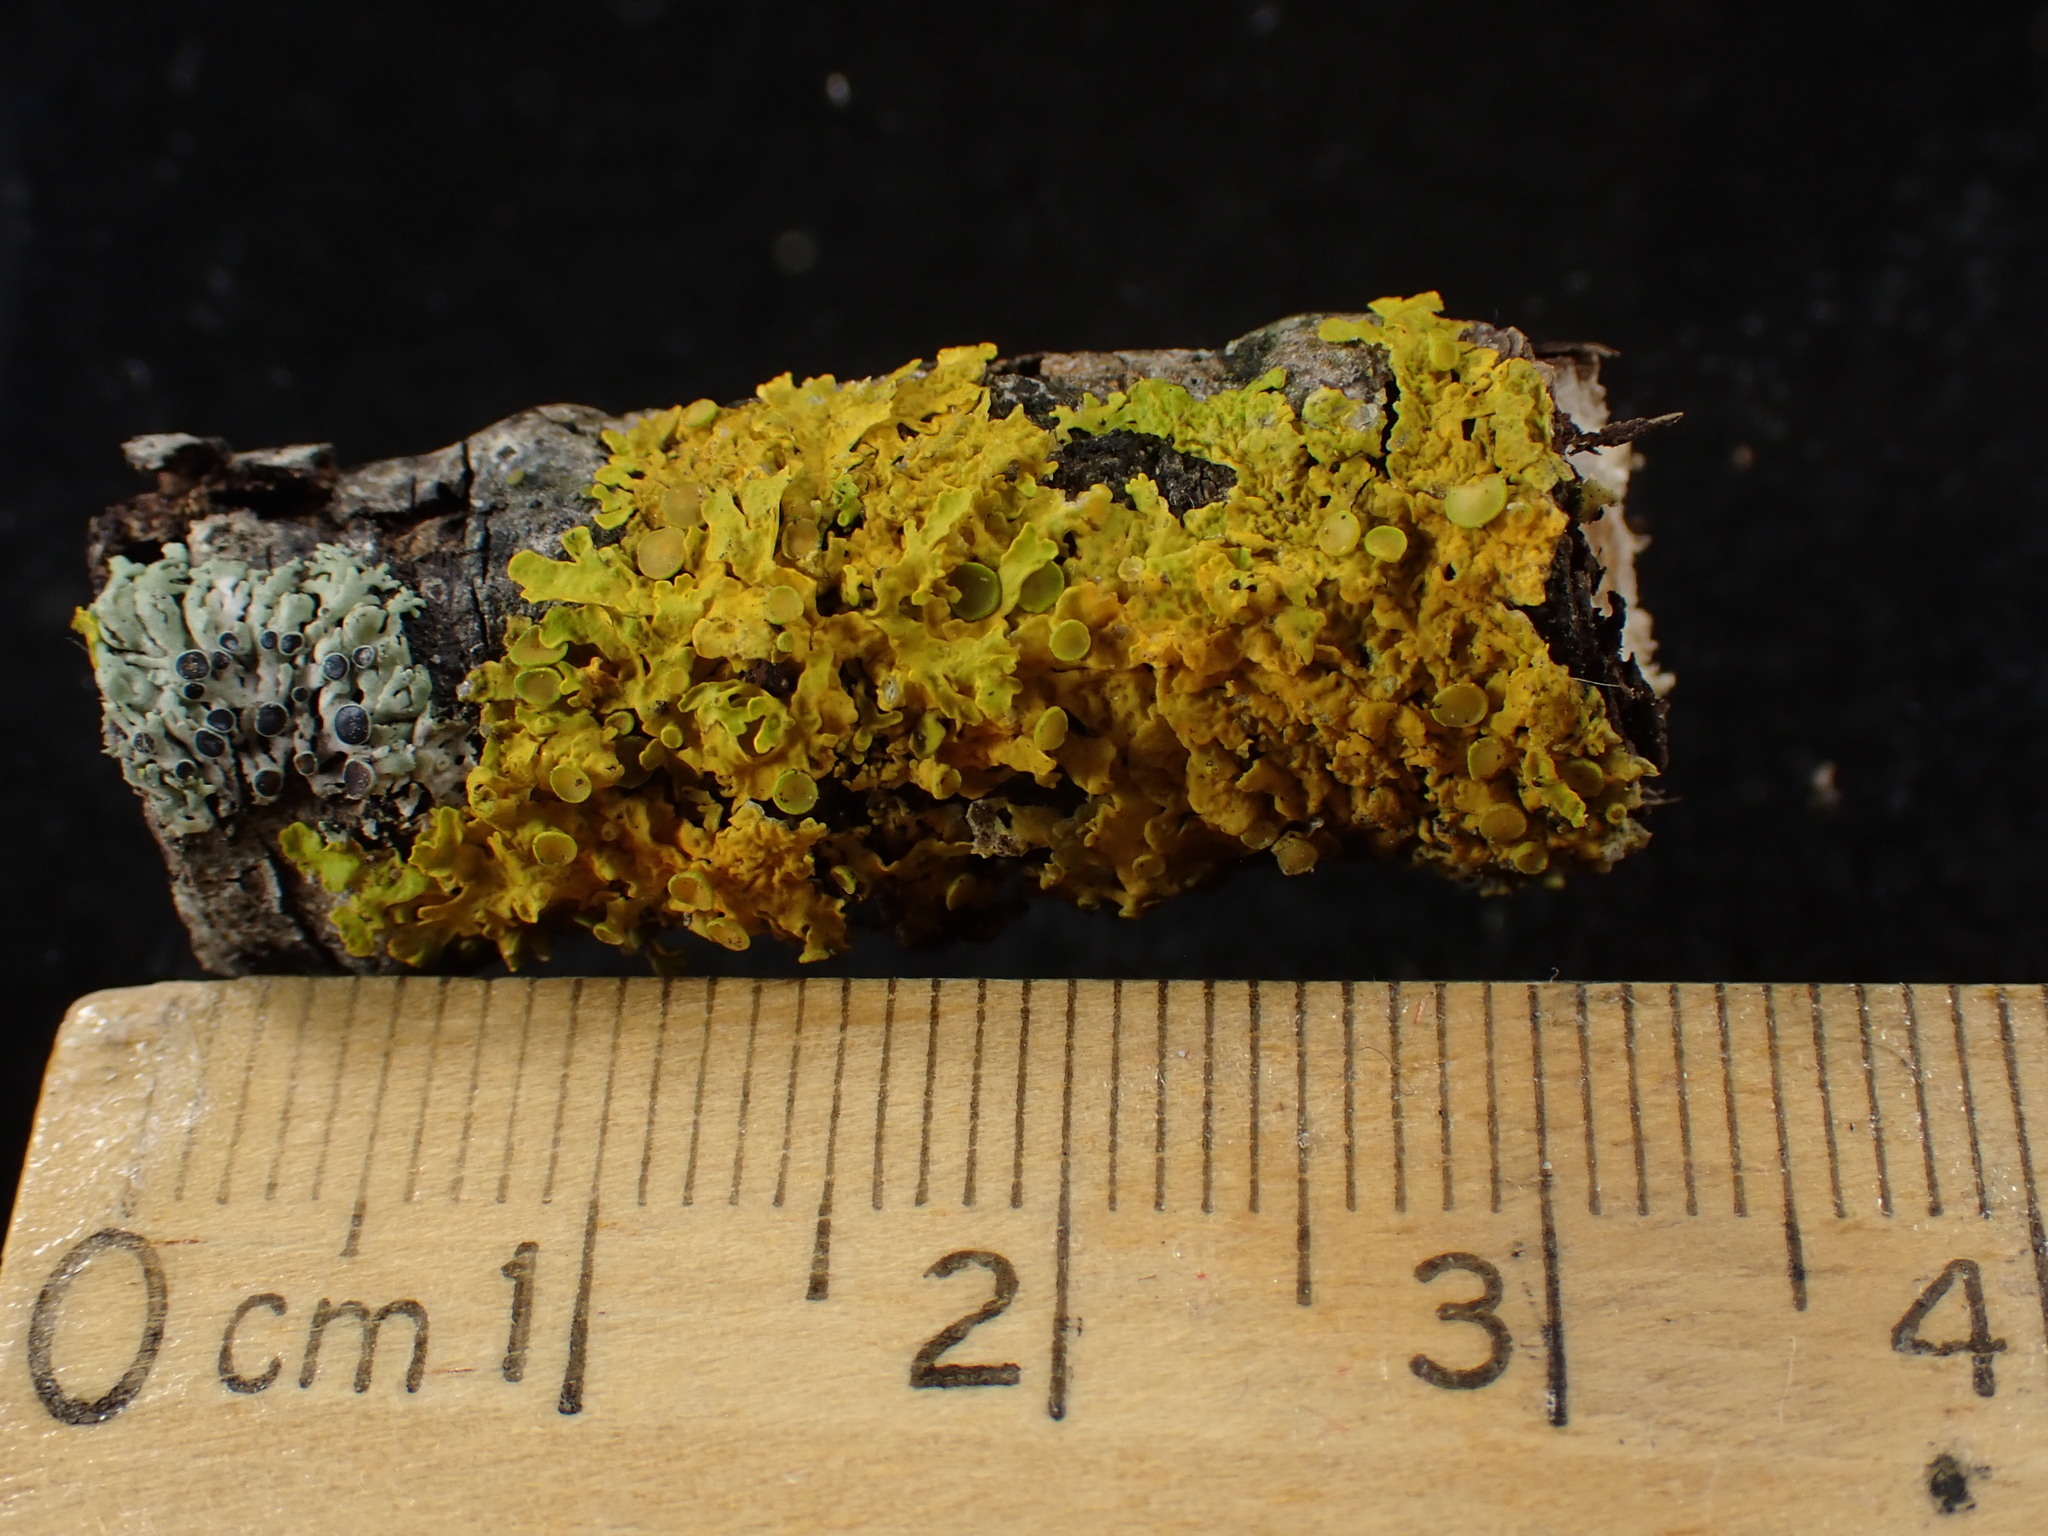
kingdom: Fungi
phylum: Ascomycota
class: Lecanoromycetes
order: Teloschistales
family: Teloschistaceae
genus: Xanthoria
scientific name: Xanthoria parietina
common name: Common orange lichen
